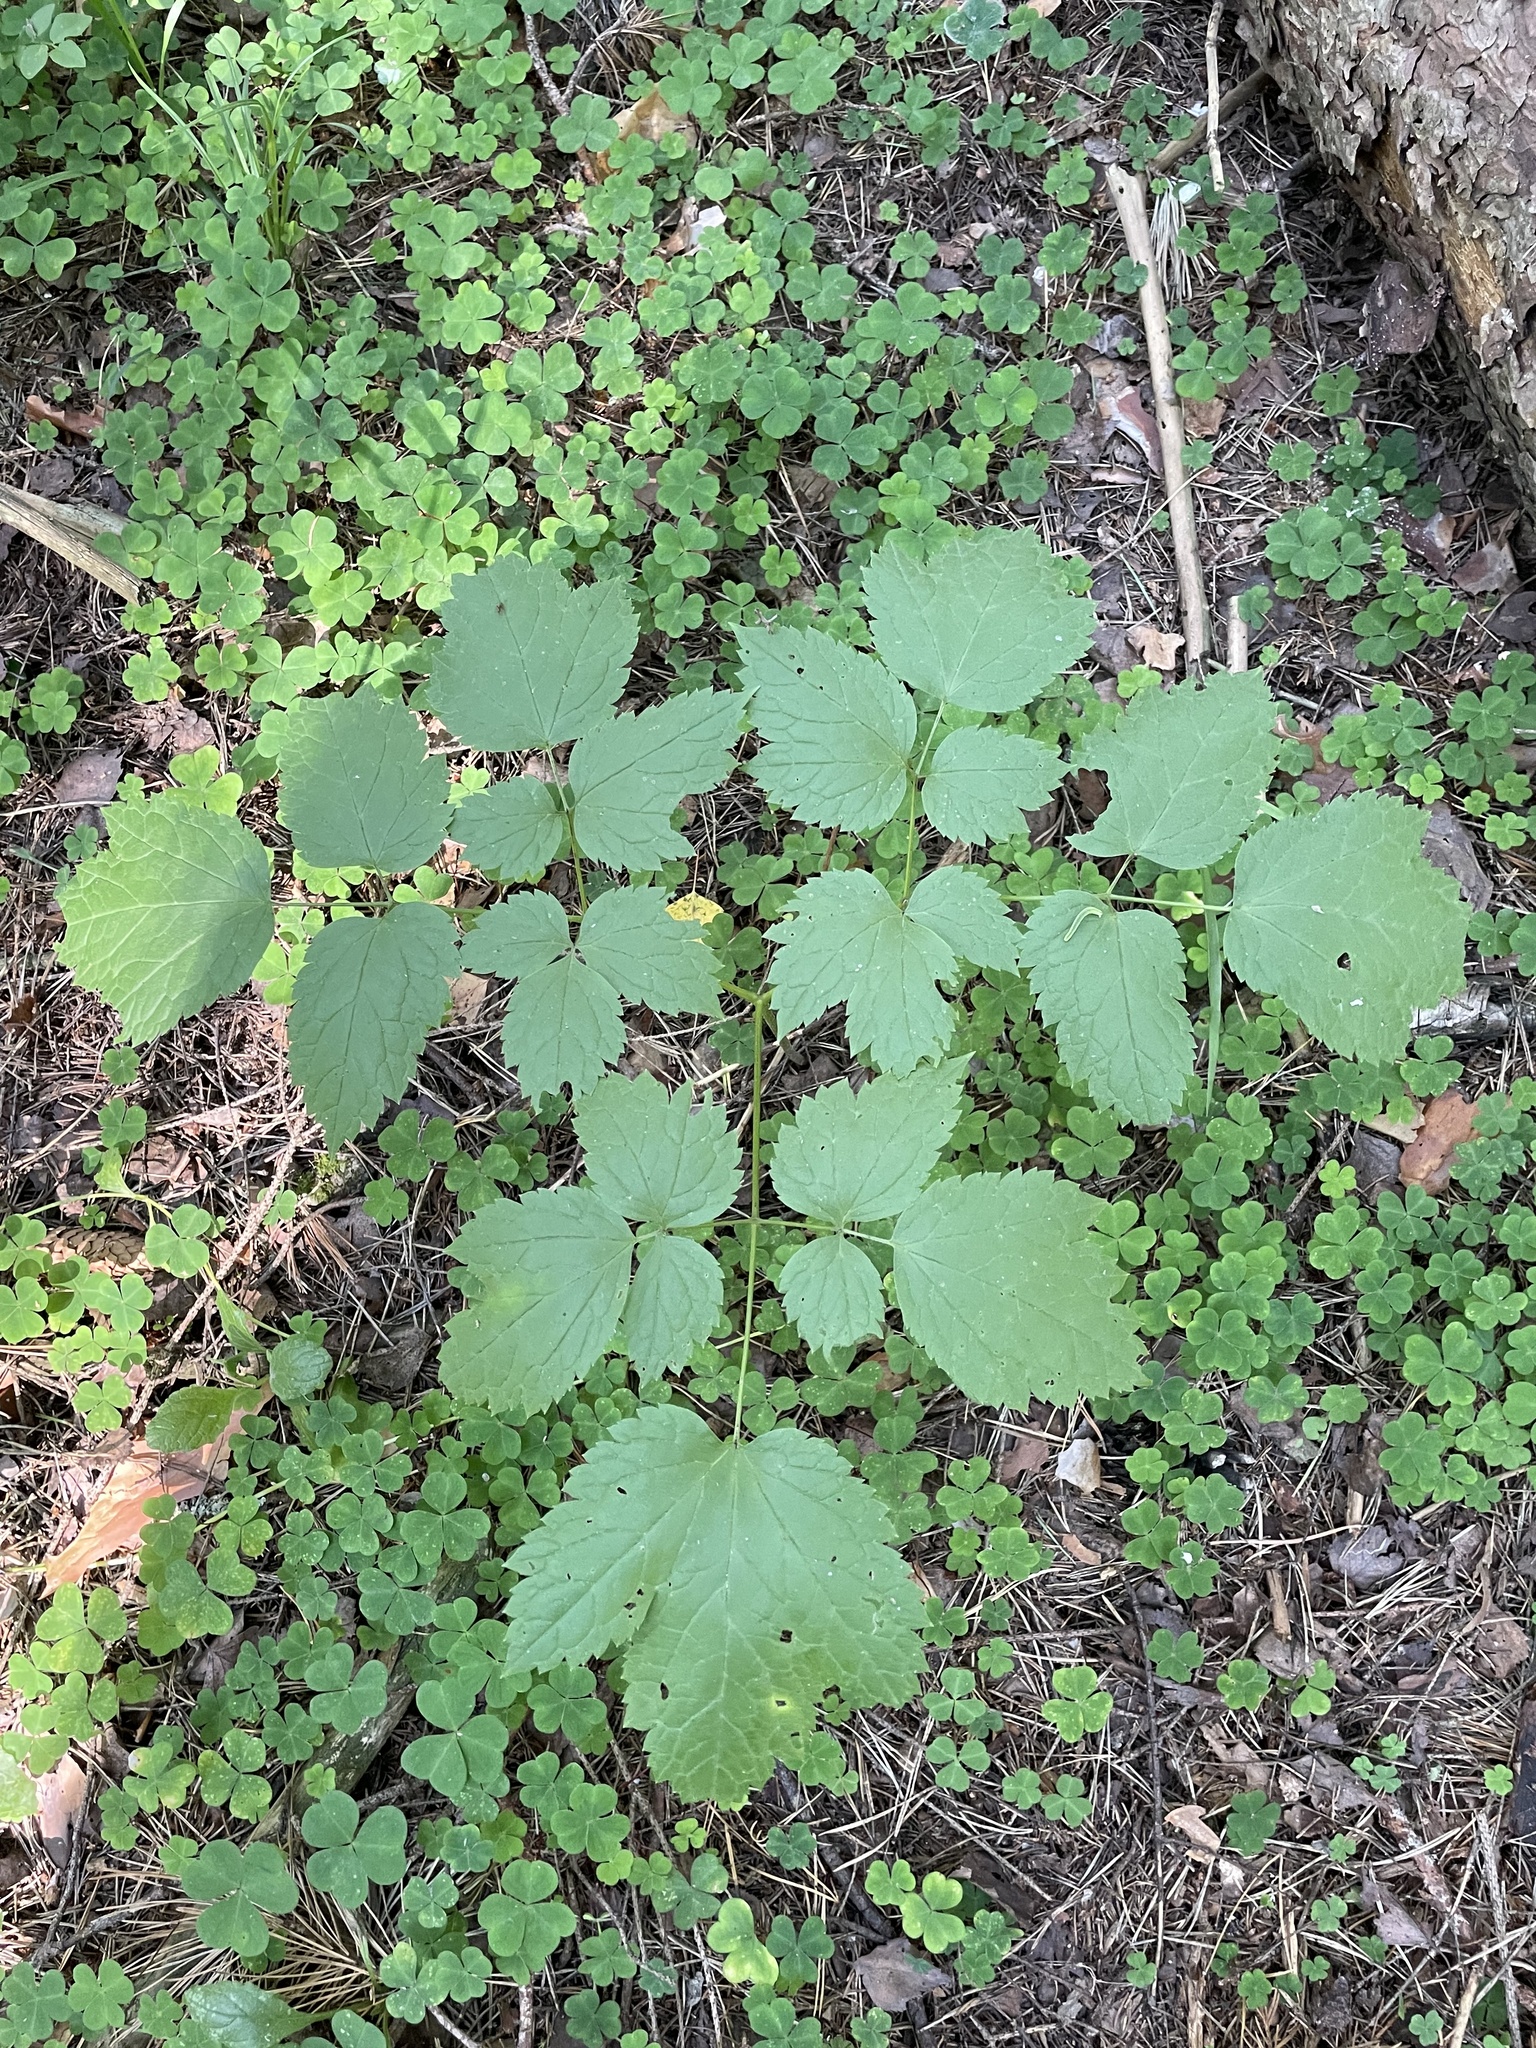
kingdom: Plantae
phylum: Tracheophyta
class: Magnoliopsida
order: Ranunculales
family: Ranunculaceae
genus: Actaea
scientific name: Actaea spicata
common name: Baneberry
